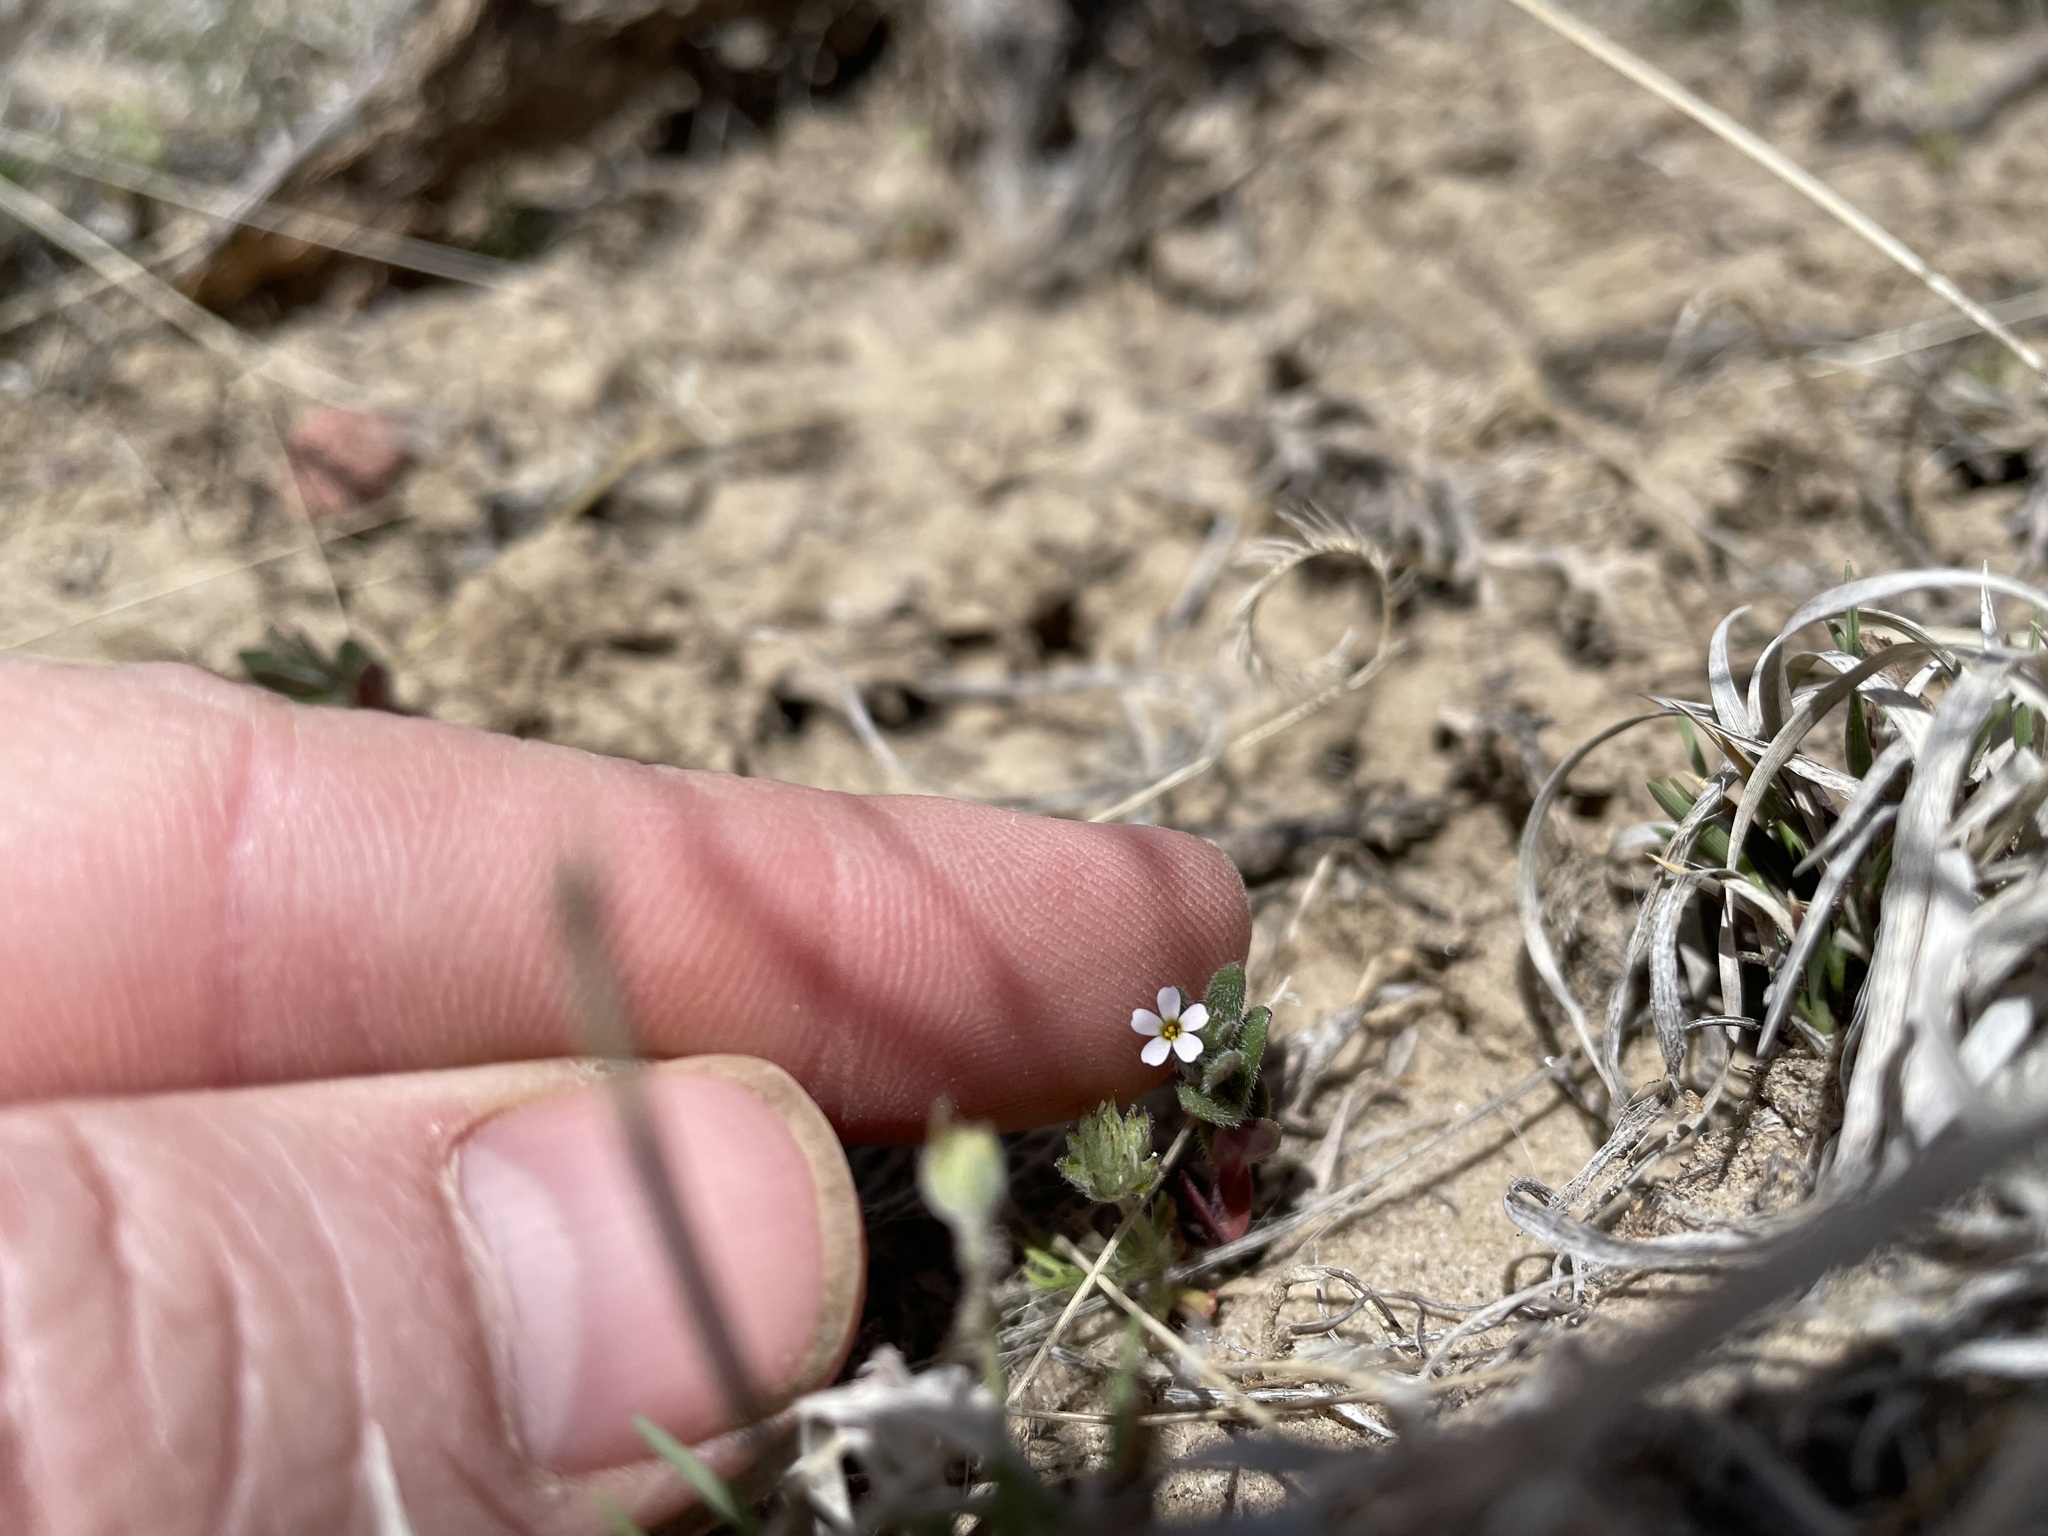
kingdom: Plantae
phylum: Tracheophyta
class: Magnoliopsida
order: Ericales
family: Polemoniaceae
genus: Phlox
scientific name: Phlox gracilis
